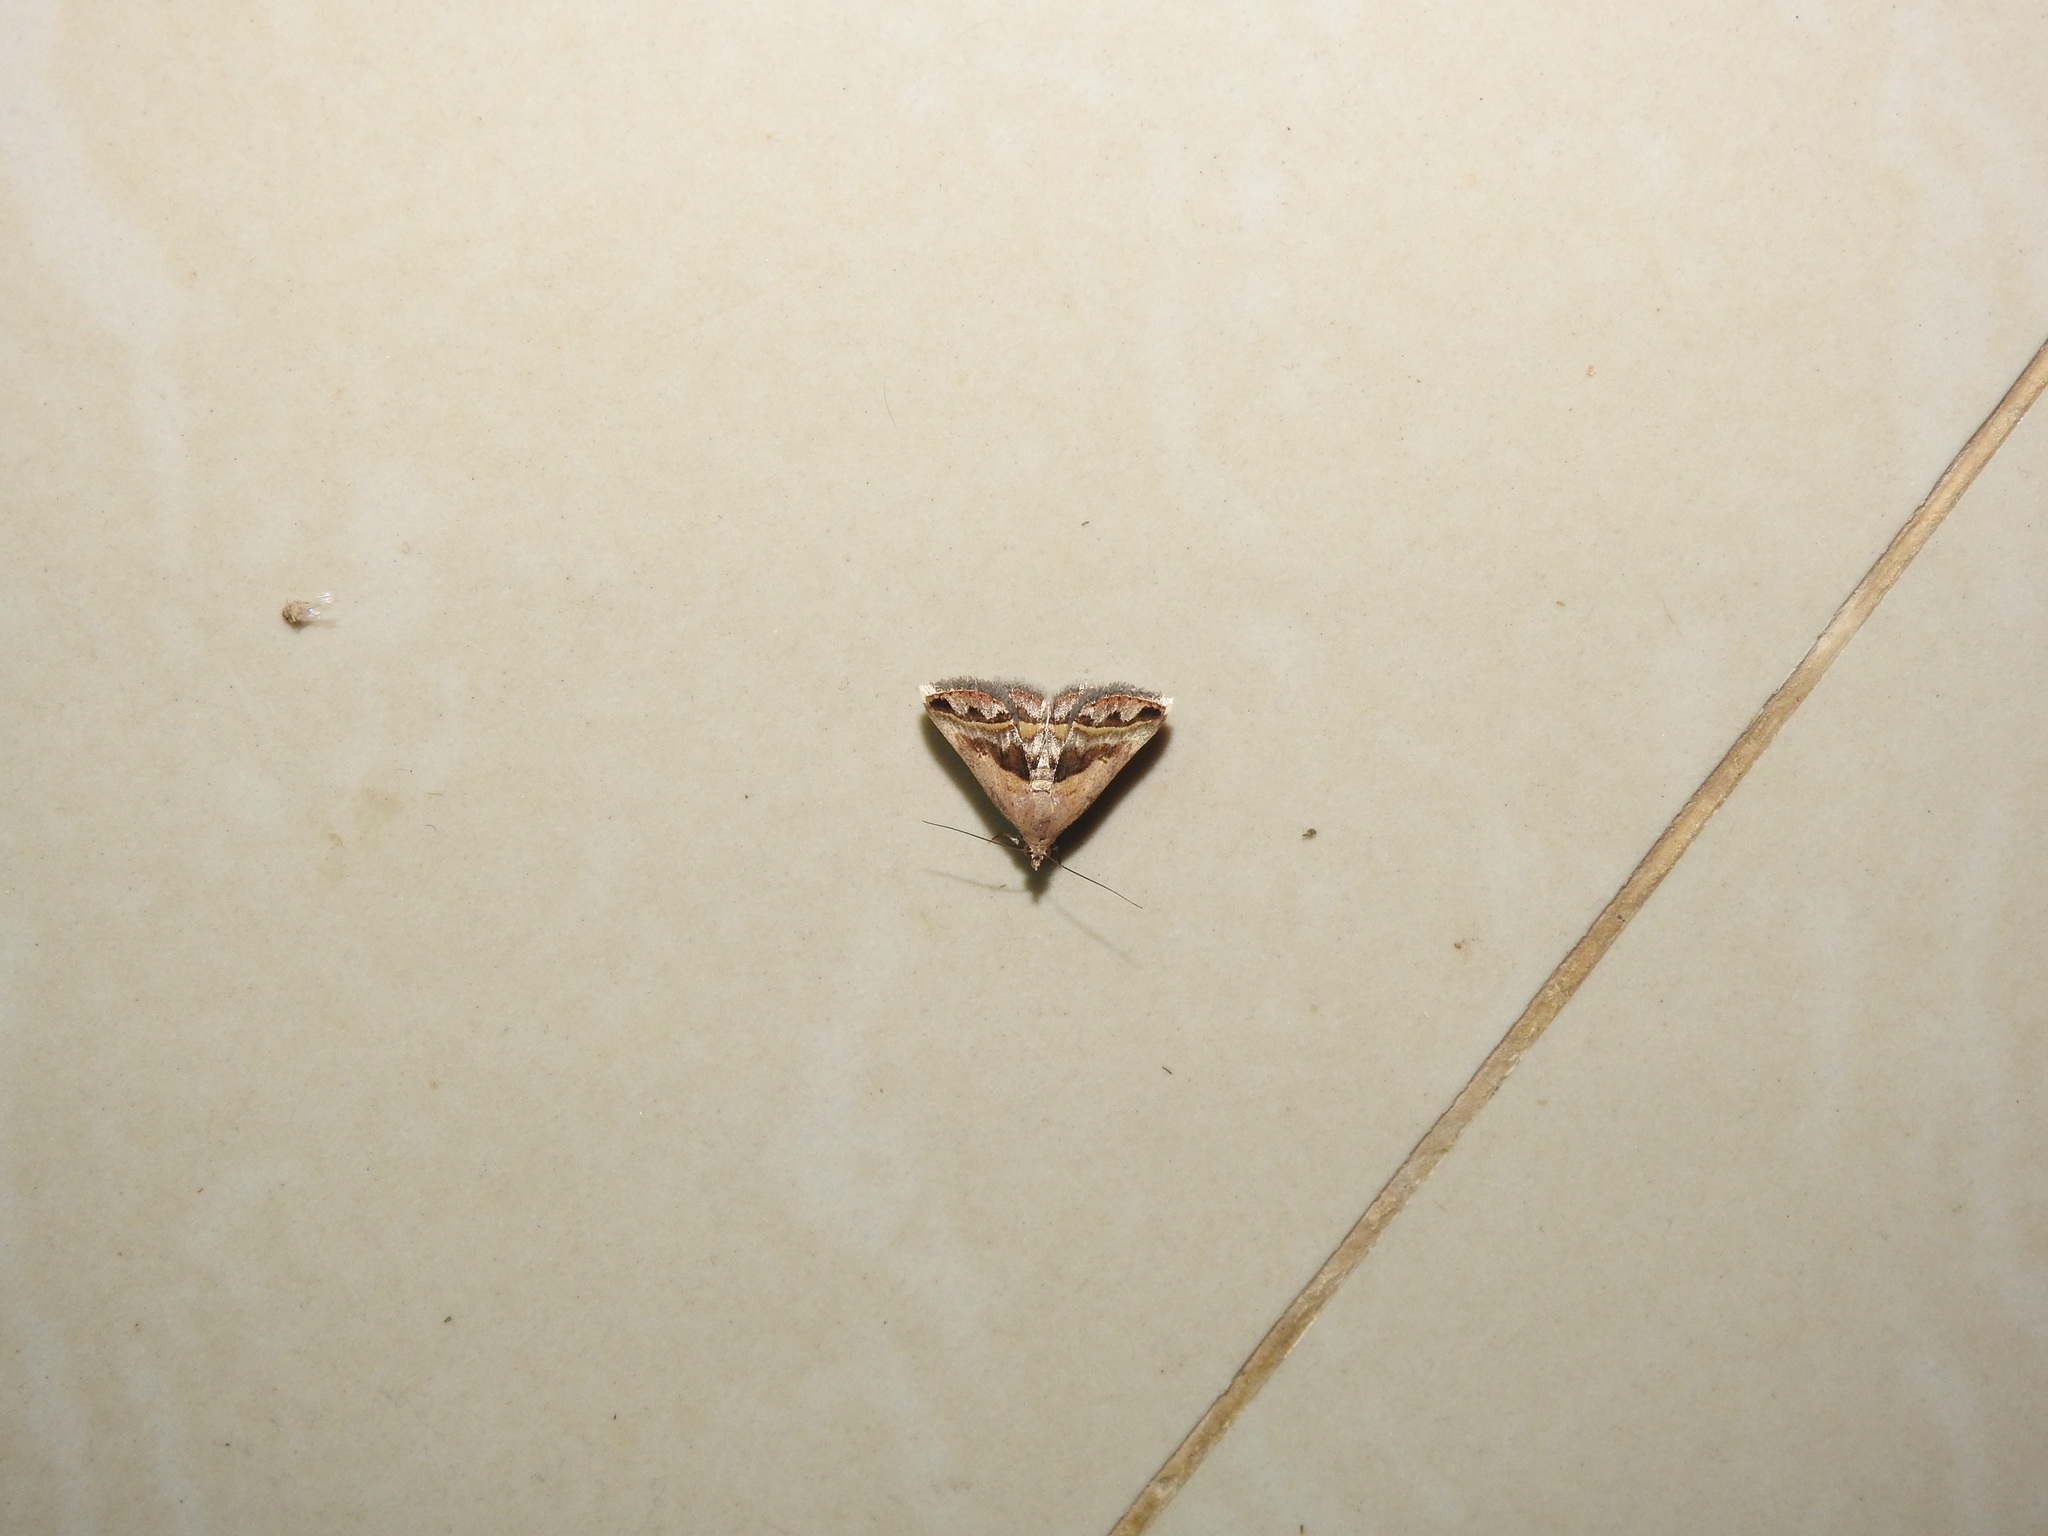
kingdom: Animalia
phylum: Arthropoda
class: Insecta
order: Lepidoptera
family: Erebidae
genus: Acantholipes
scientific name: Acantholipes trajecta
